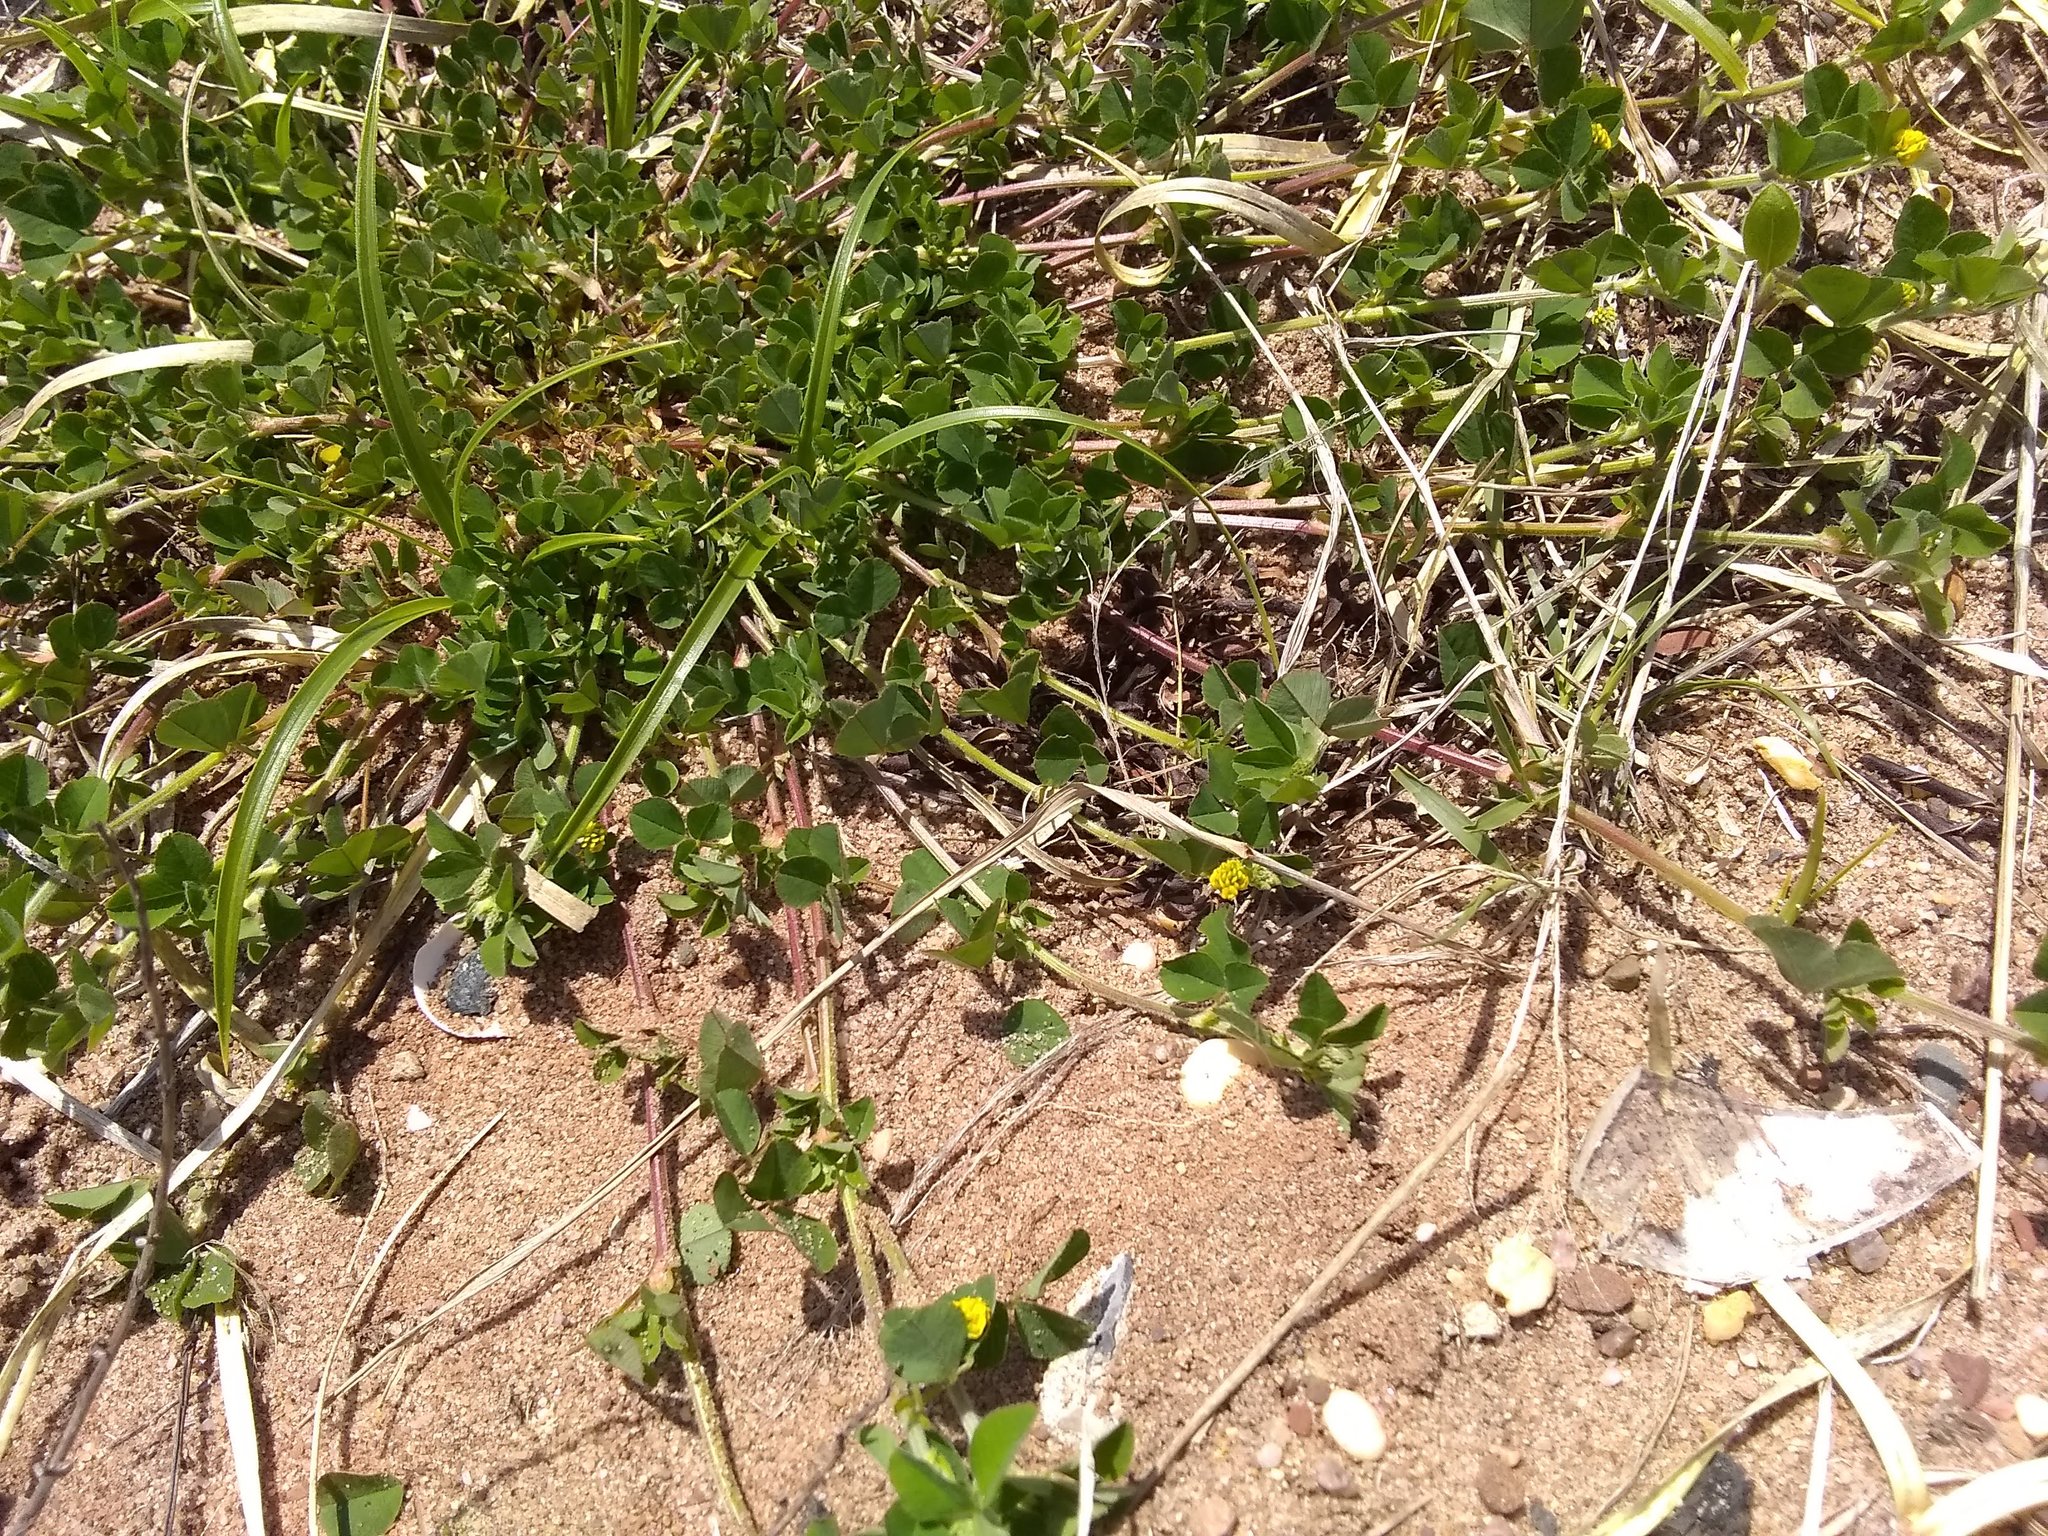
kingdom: Plantae
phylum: Tracheophyta
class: Magnoliopsida
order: Fabales
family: Fabaceae
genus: Medicago
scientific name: Medicago lupulina
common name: Black medick
